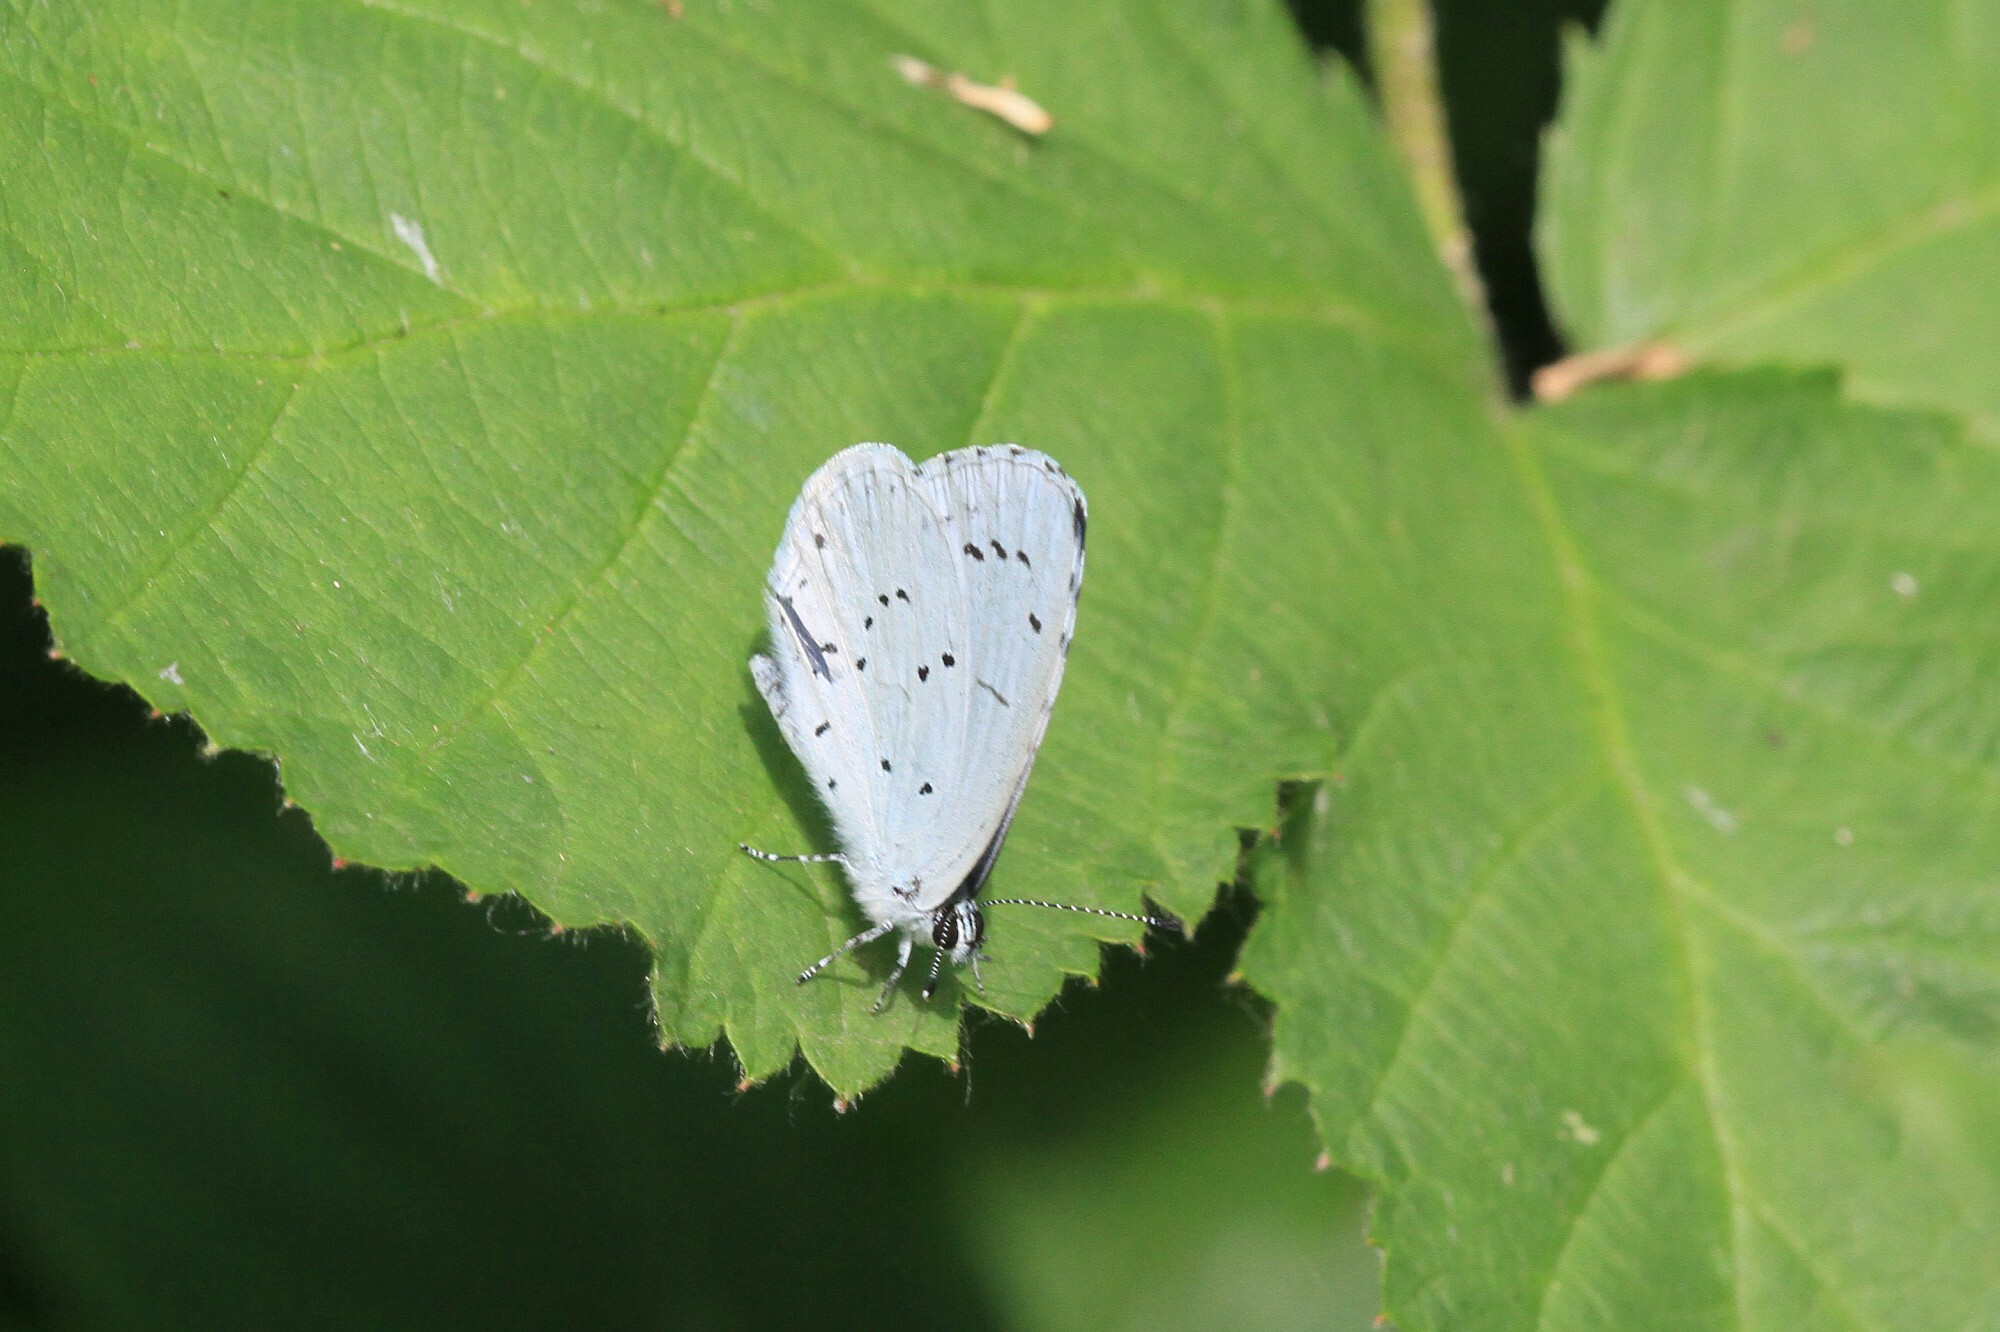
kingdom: Animalia
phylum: Arthropoda
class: Insecta
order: Lepidoptera
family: Lycaenidae
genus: Celastrina
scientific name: Celastrina argiolus
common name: Holly blue
